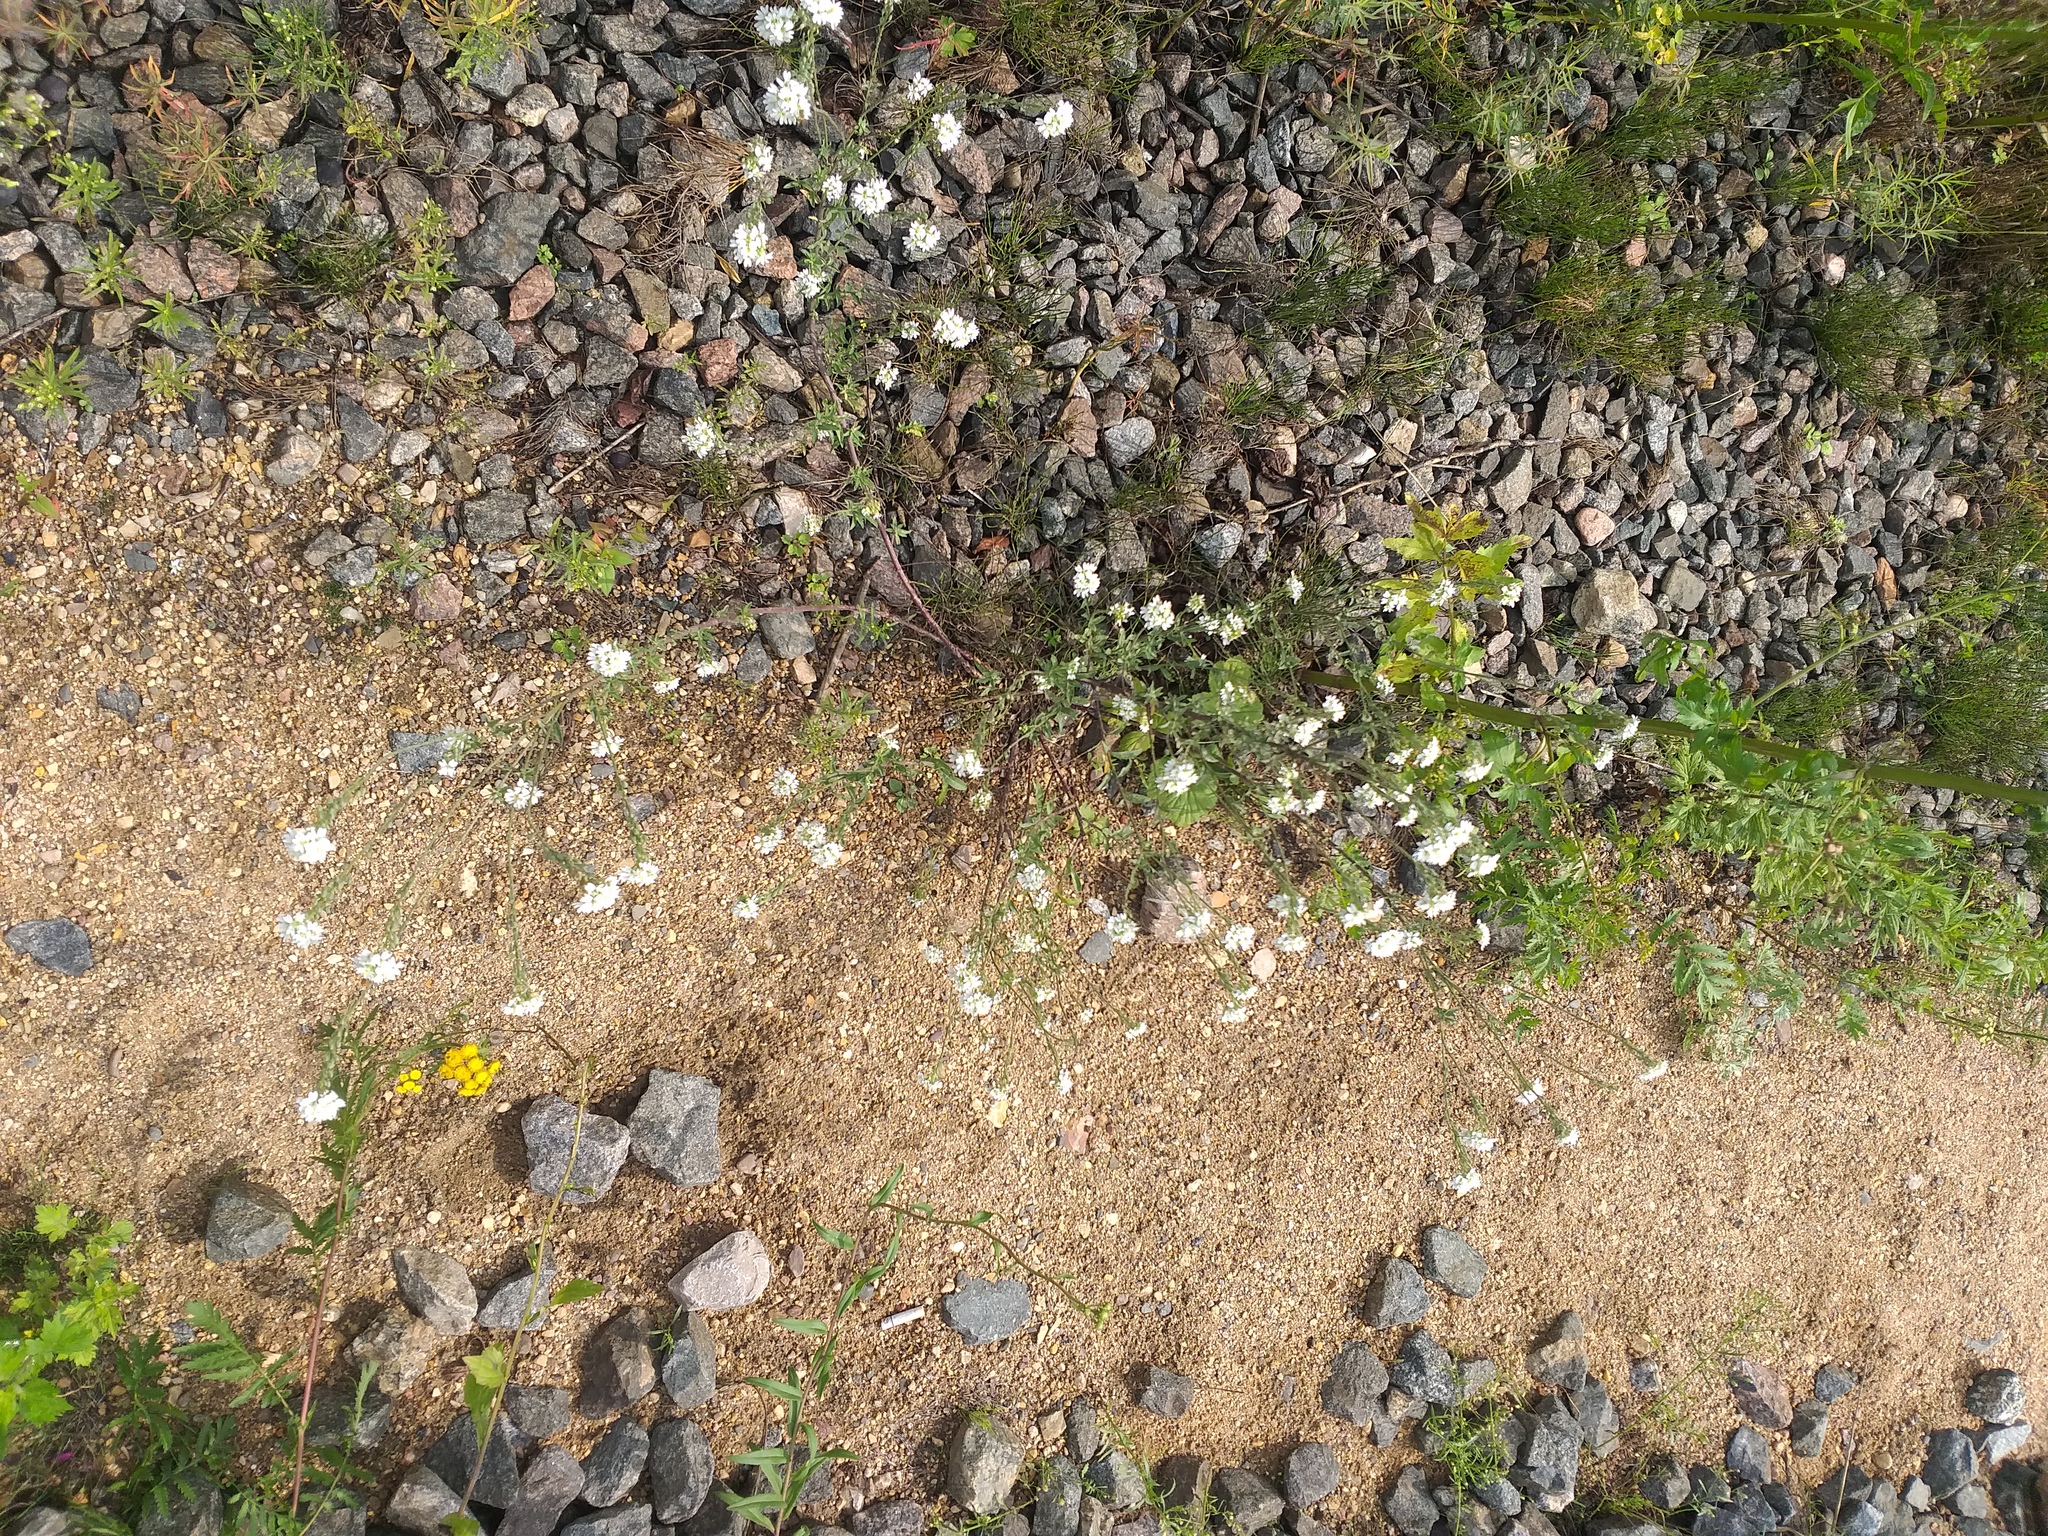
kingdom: Plantae
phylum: Tracheophyta
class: Magnoliopsida
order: Brassicales
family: Brassicaceae
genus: Berteroa
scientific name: Berteroa incana
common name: Hoary alison
